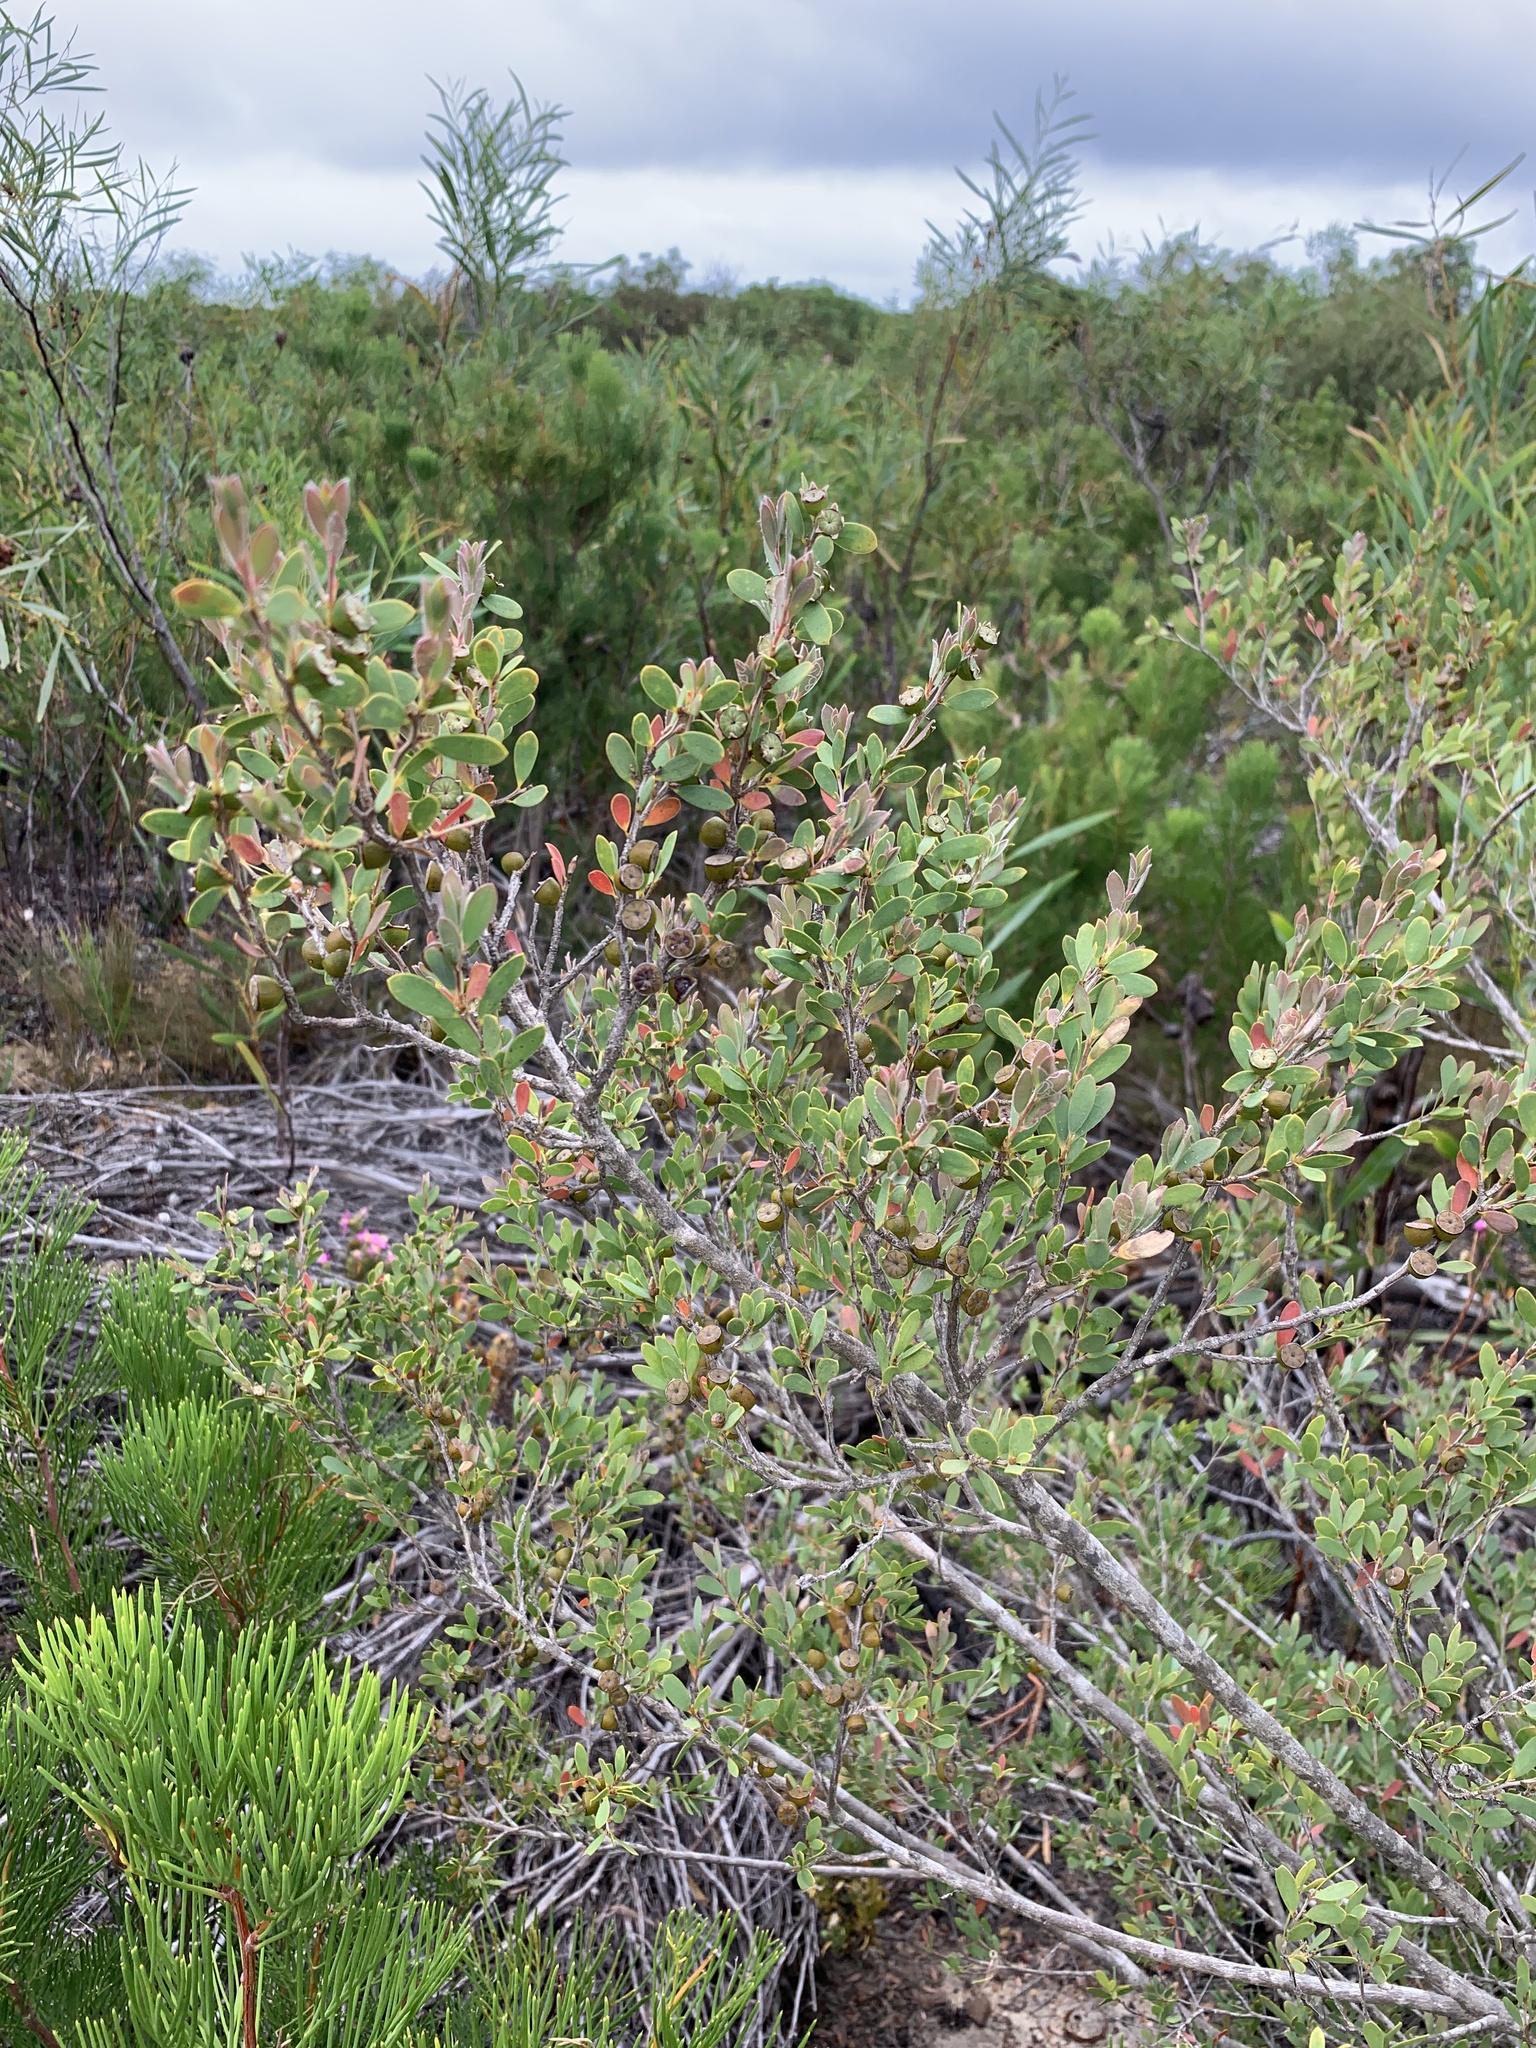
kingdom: Plantae
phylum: Tracheophyta
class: Magnoliopsida
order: Myrtales
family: Myrtaceae
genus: Leptospermum
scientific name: Leptospermum laevigatum
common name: Australian teatree
